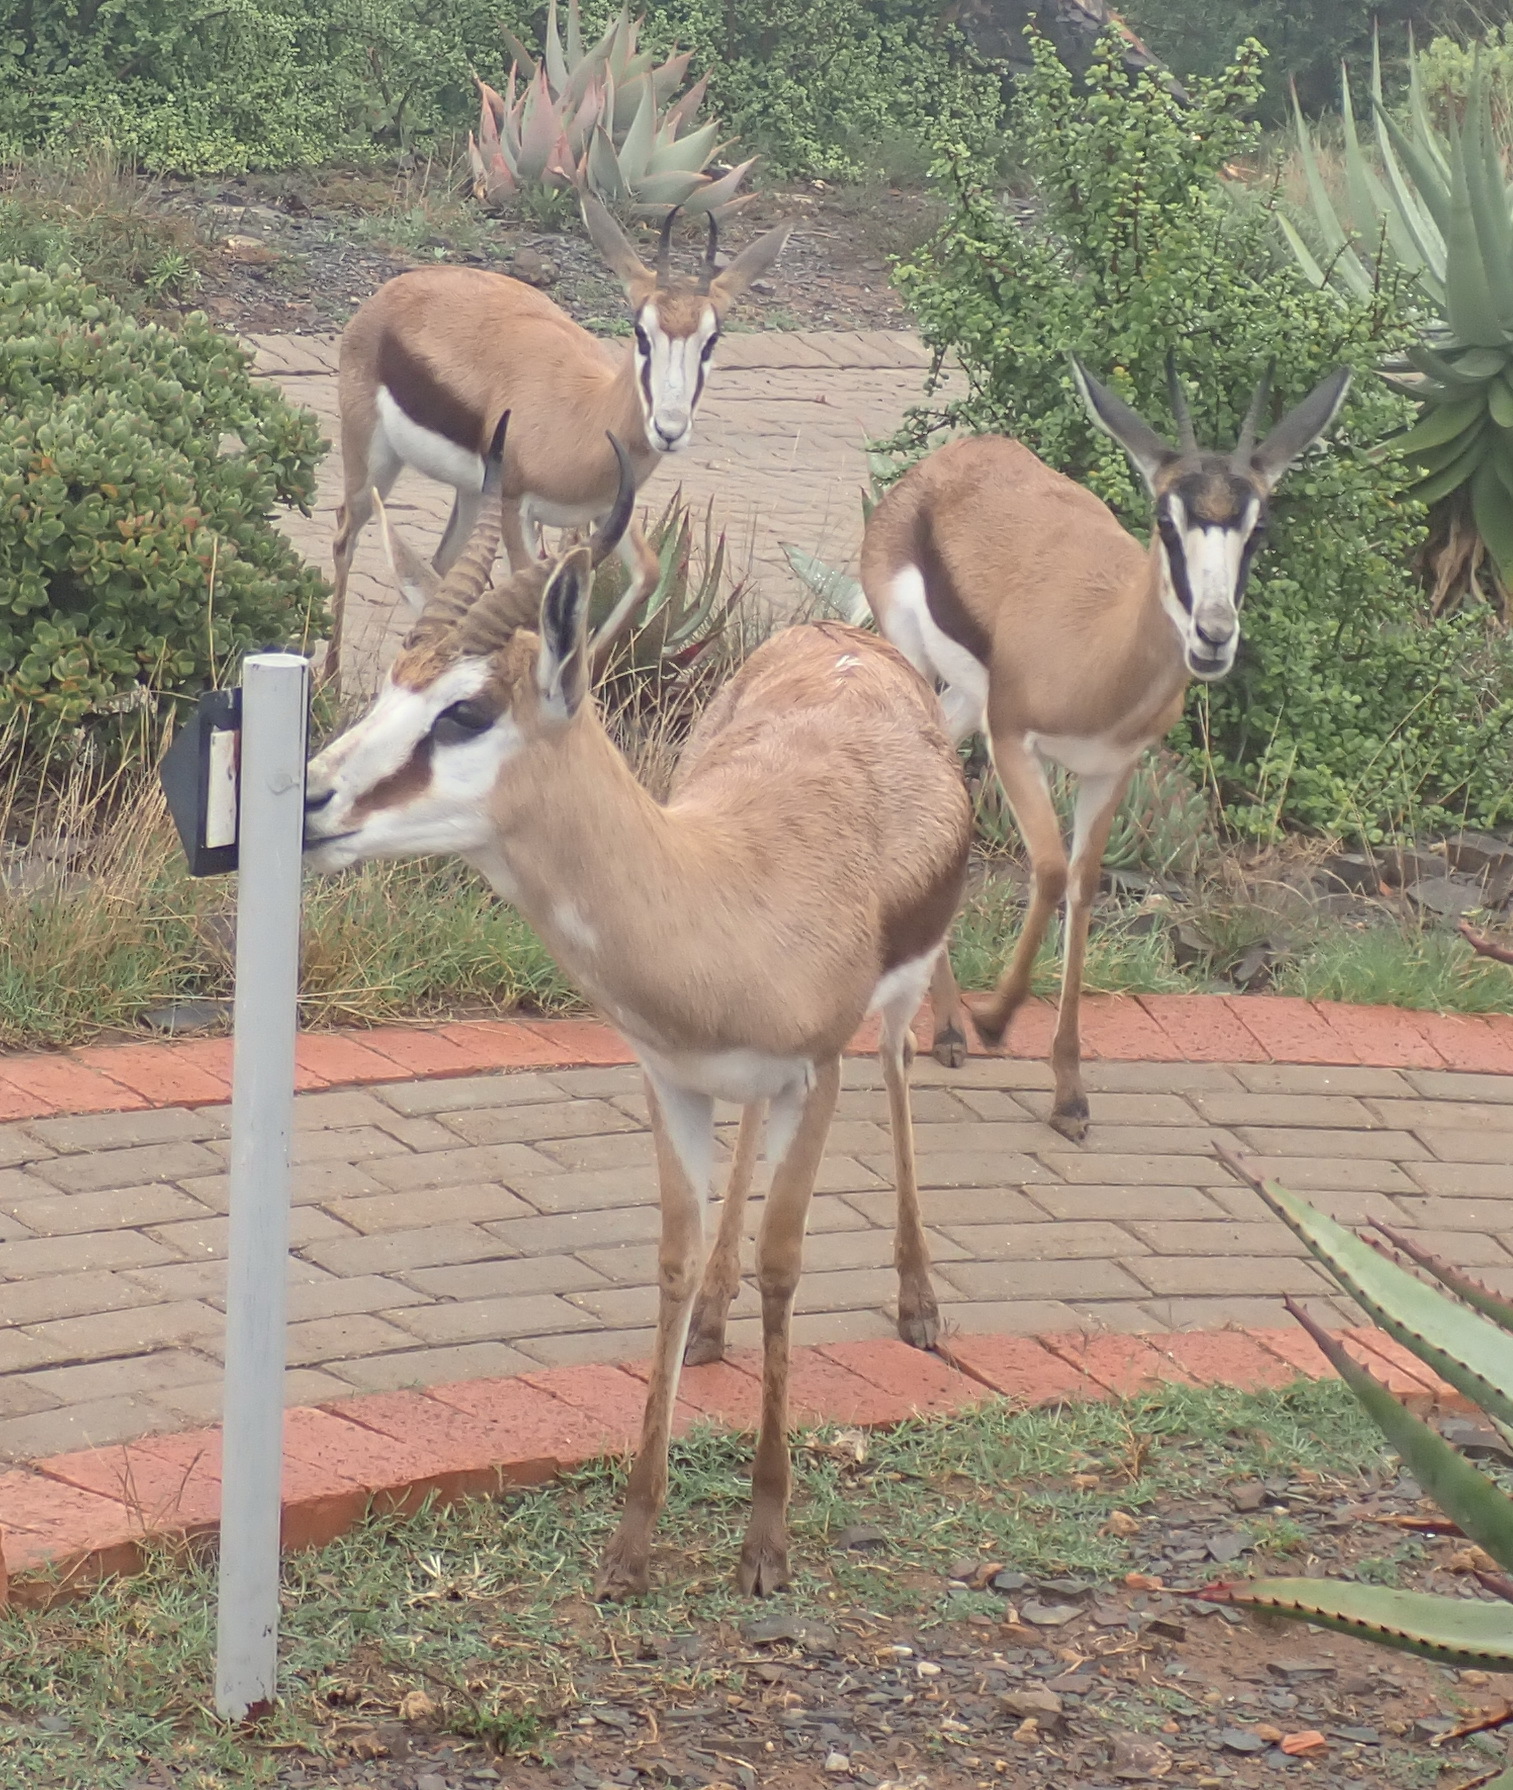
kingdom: Animalia
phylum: Chordata
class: Mammalia
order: Artiodactyla
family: Bovidae
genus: Antidorcas
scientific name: Antidorcas marsupialis
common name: Springbok
